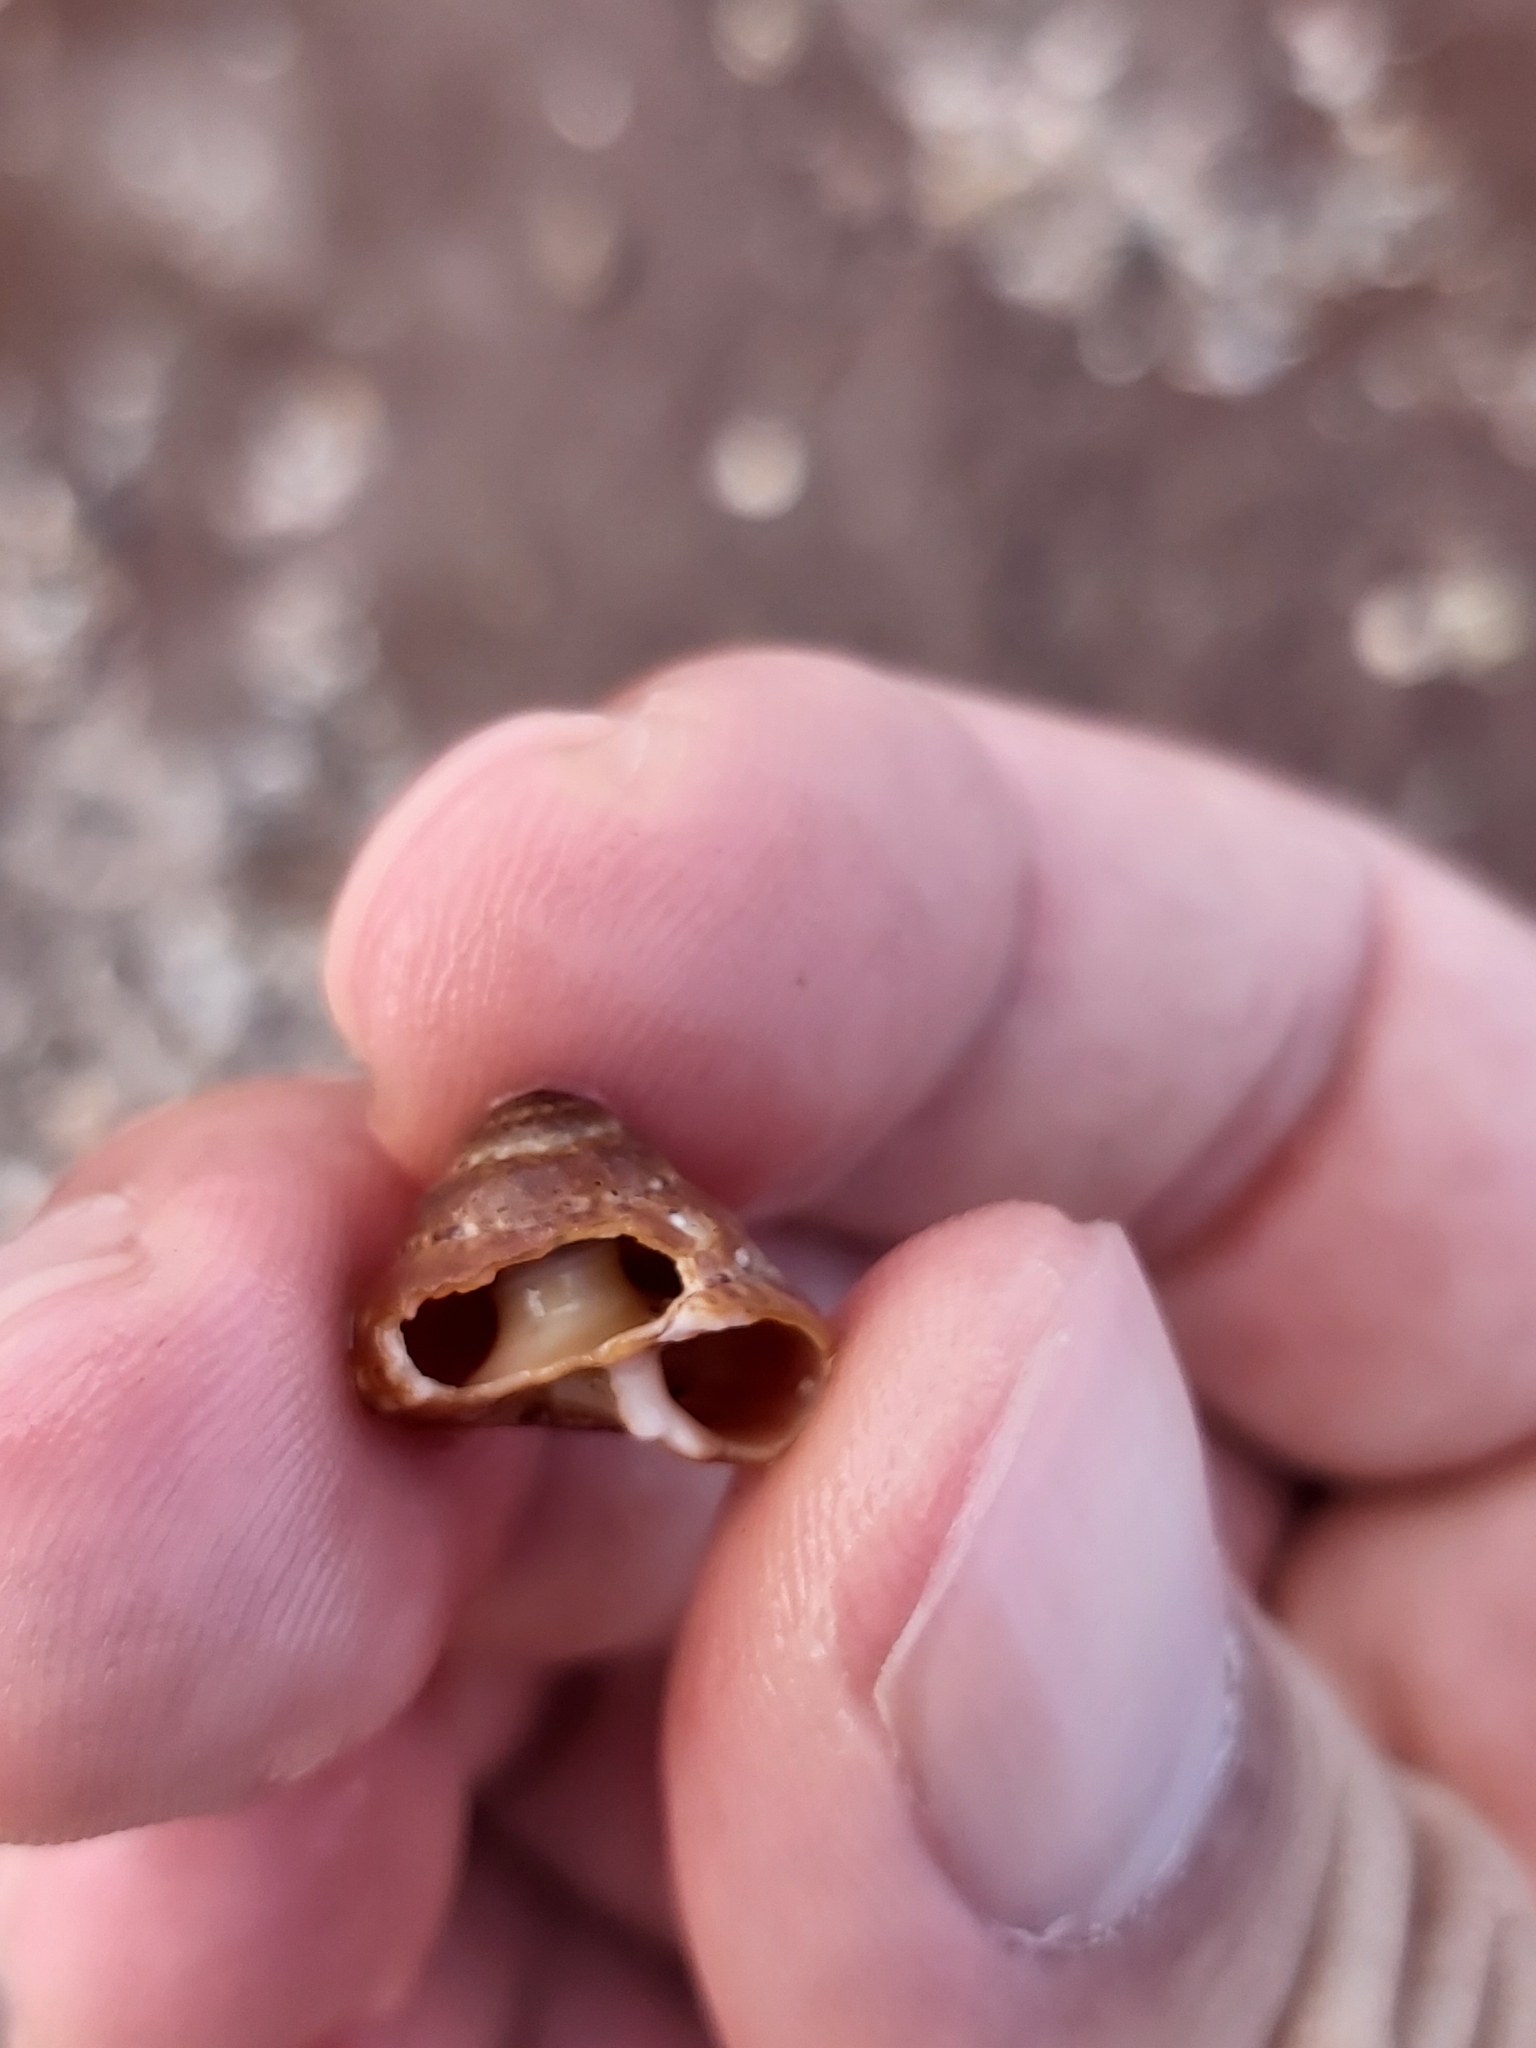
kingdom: Animalia
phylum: Mollusca
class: Gastropoda
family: Architectonicidae
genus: Philippia
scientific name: Philippia lutea
